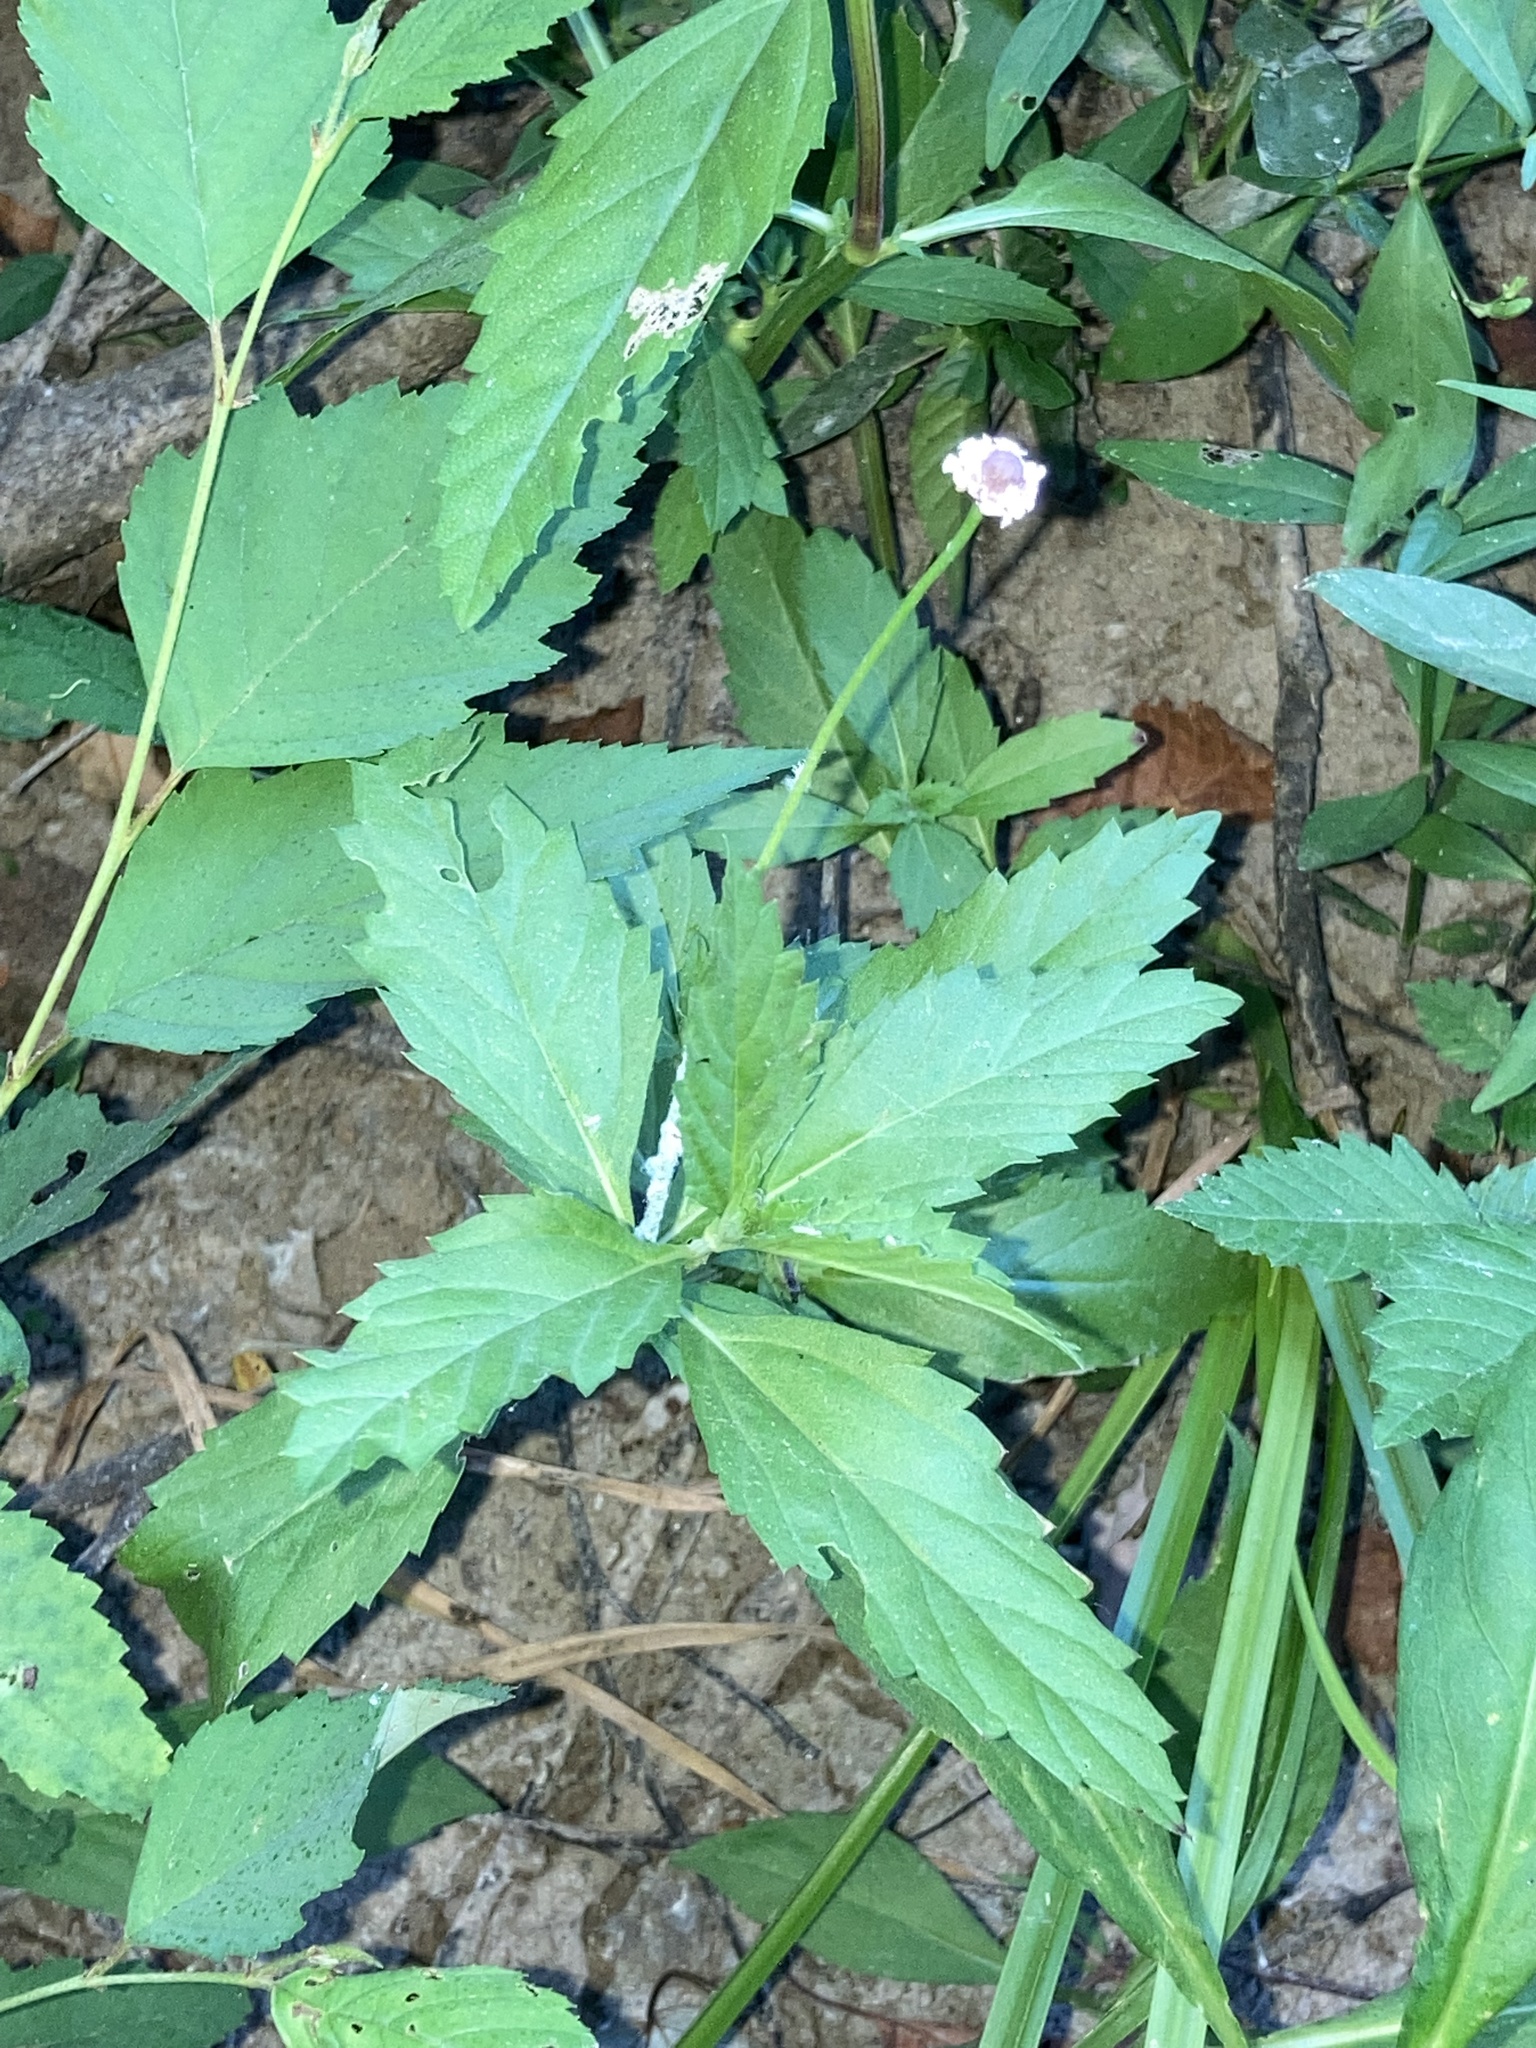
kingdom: Plantae
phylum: Tracheophyta
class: Magnoliopsida
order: Lamiales
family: Verbenaceae
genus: Phyla
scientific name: Phyla lanceolata
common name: Northern fogfruit
